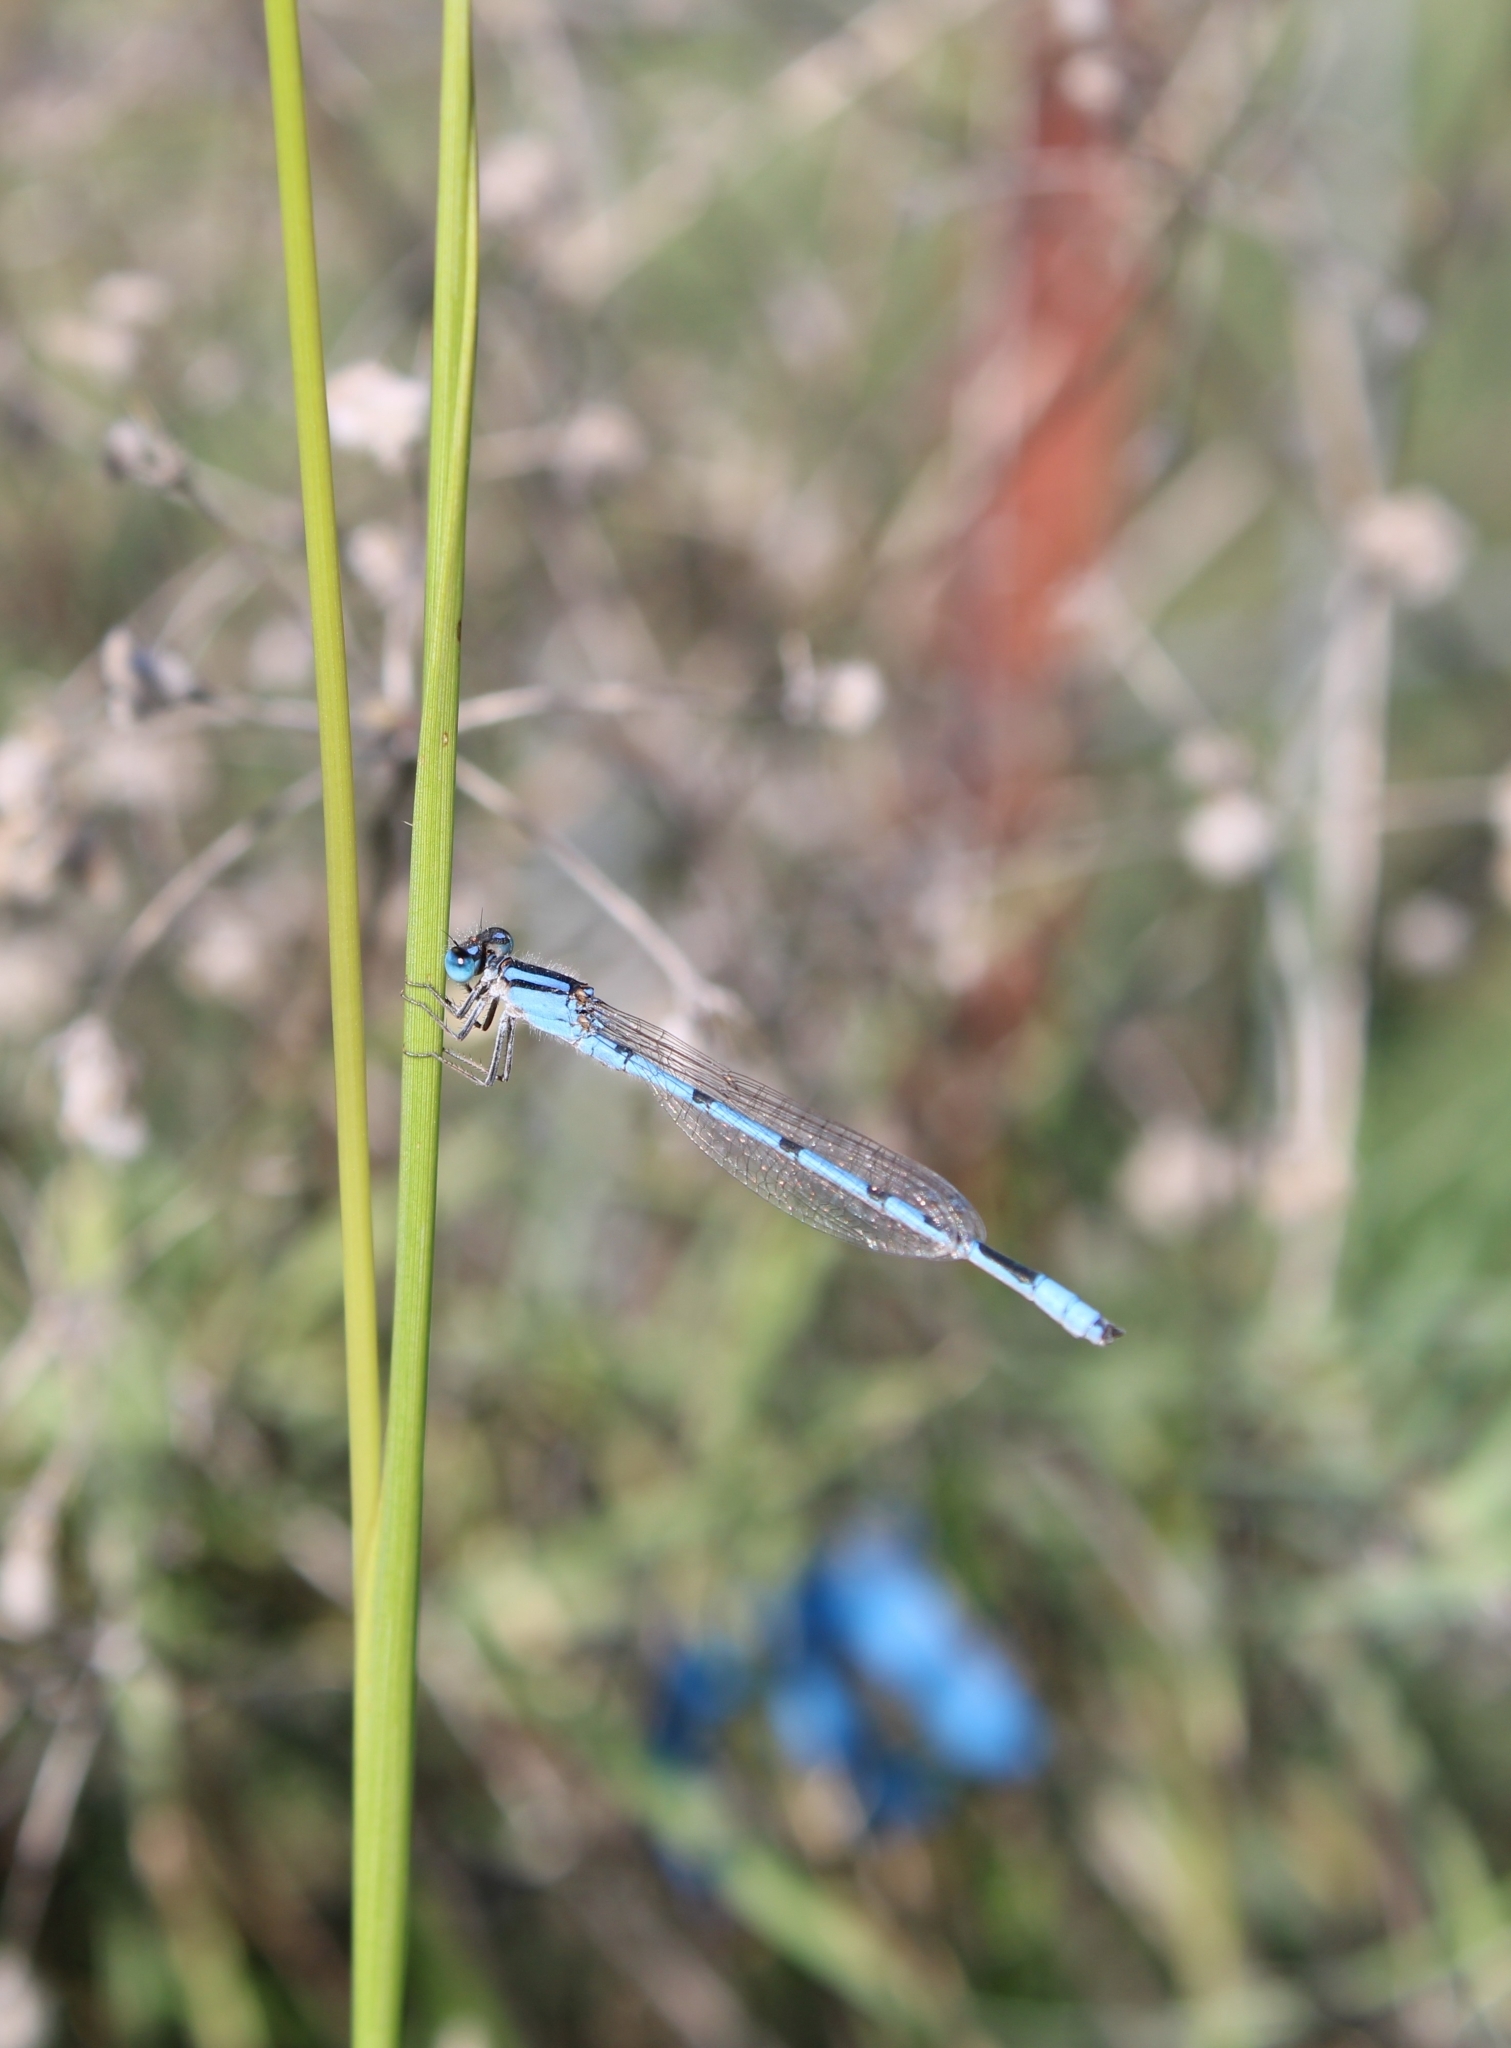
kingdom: Animalia
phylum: Arthropoda
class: Insecta
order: Odonata
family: Coenagrionidae
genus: Enallagma
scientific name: Enallagma civile
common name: Damselfly
